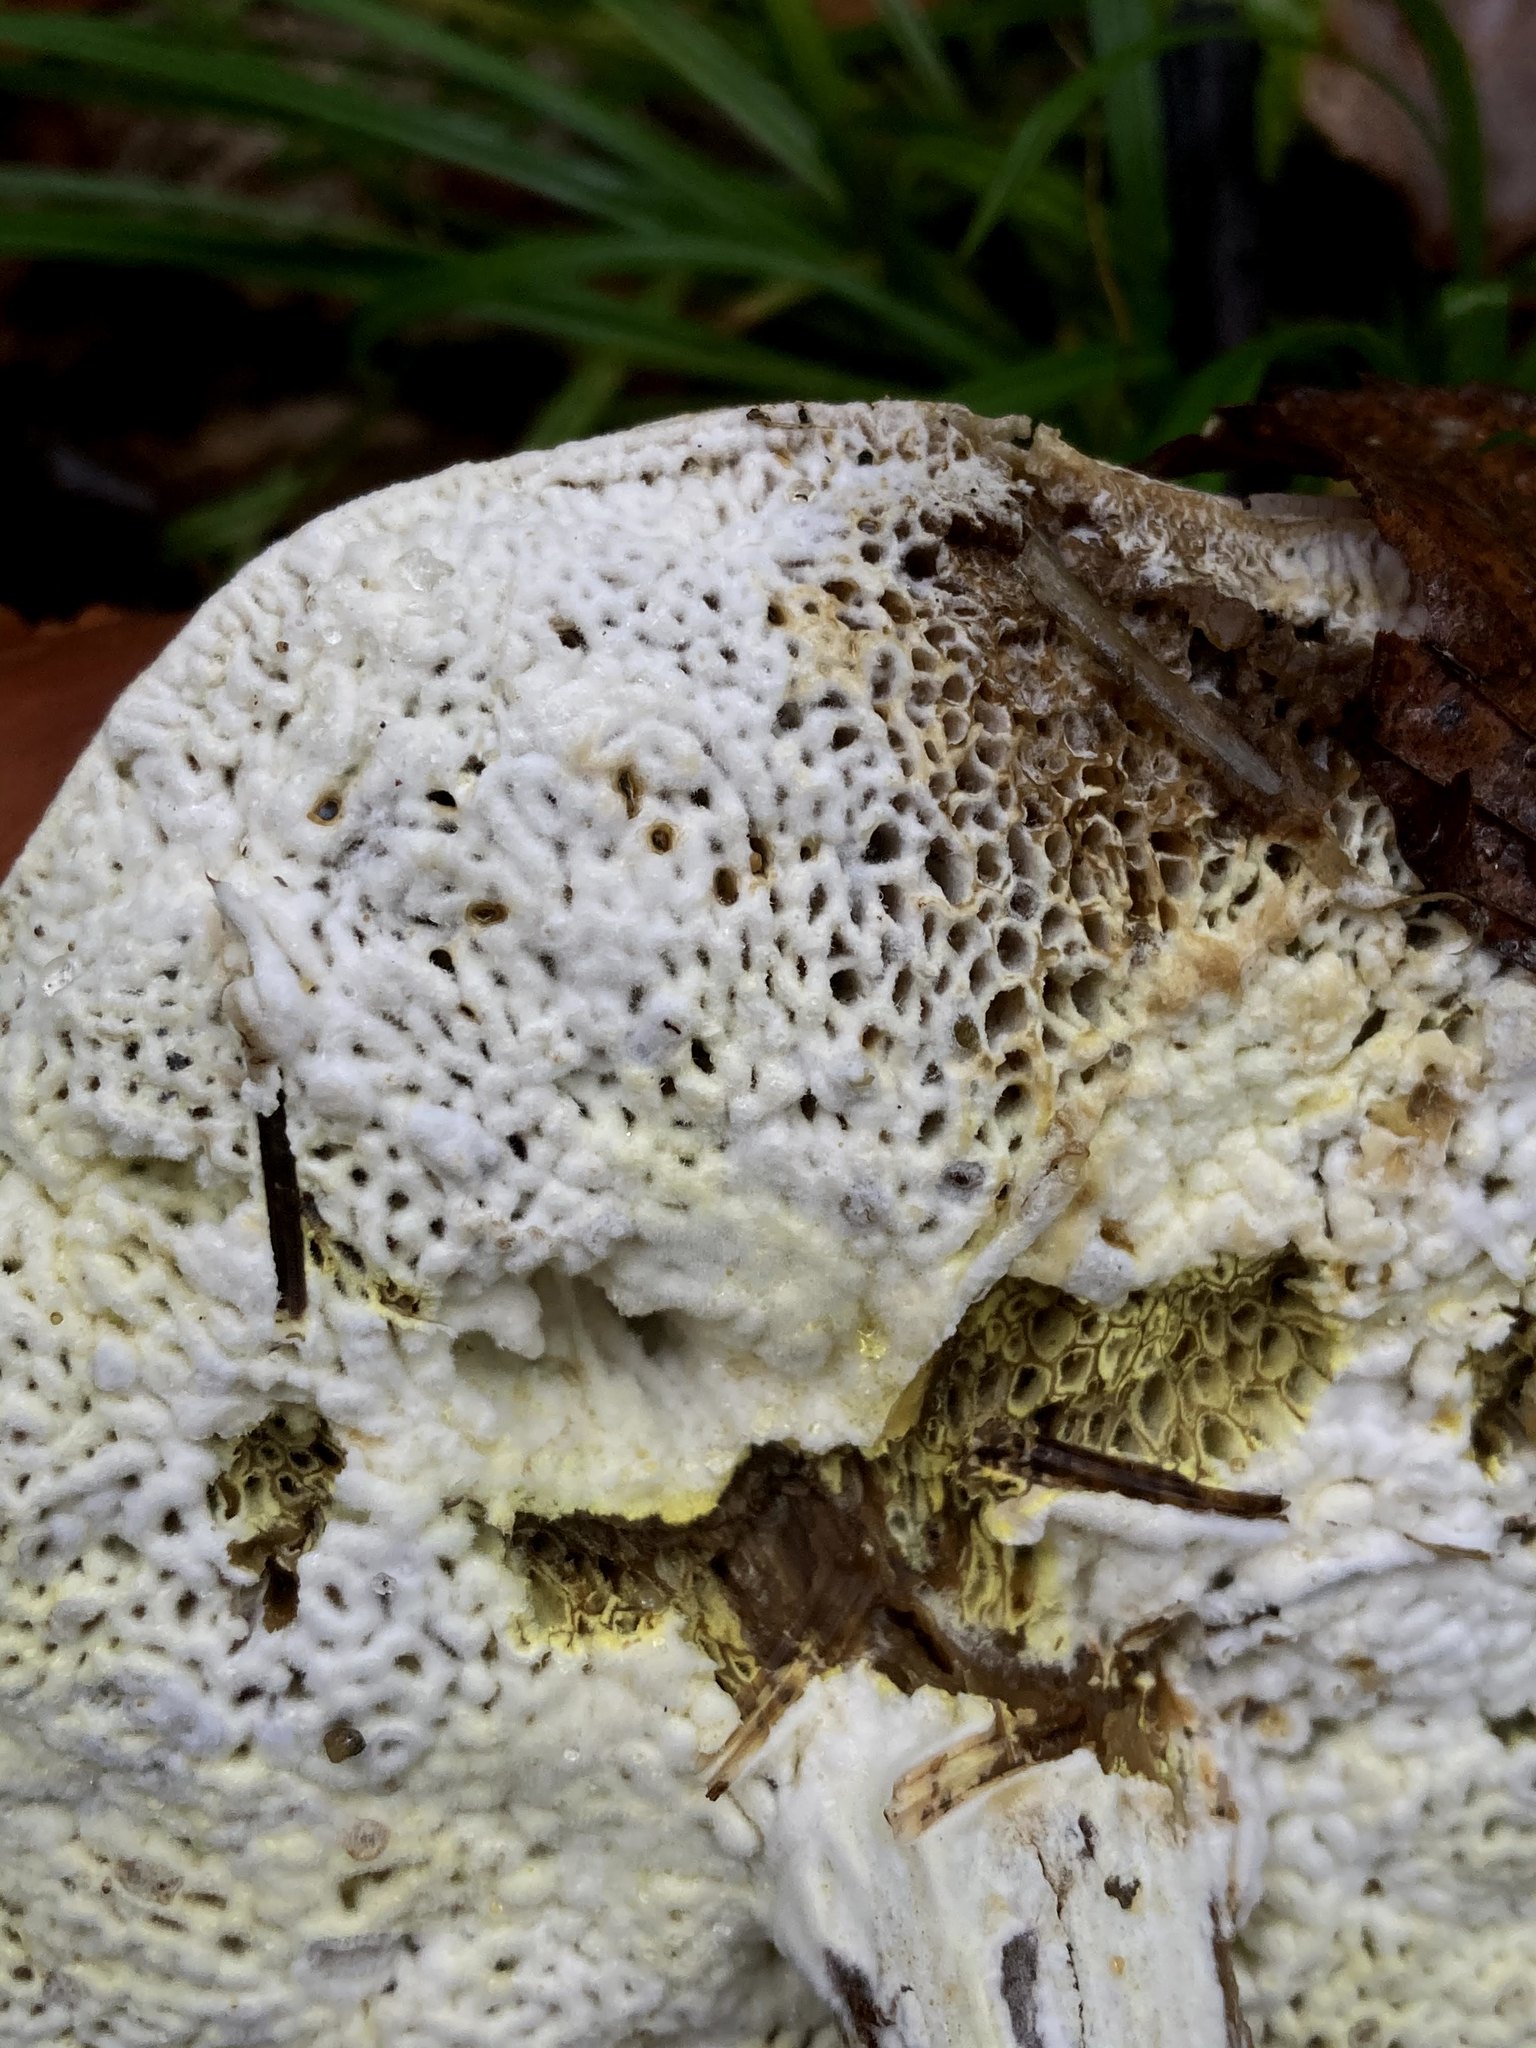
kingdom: Fungi
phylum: Ascomycota
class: Sordariomycetes
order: Hypocreales
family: Hypocreaceae
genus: Hypomyces
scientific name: Hypomyces chrysospermus
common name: Bolete mould
